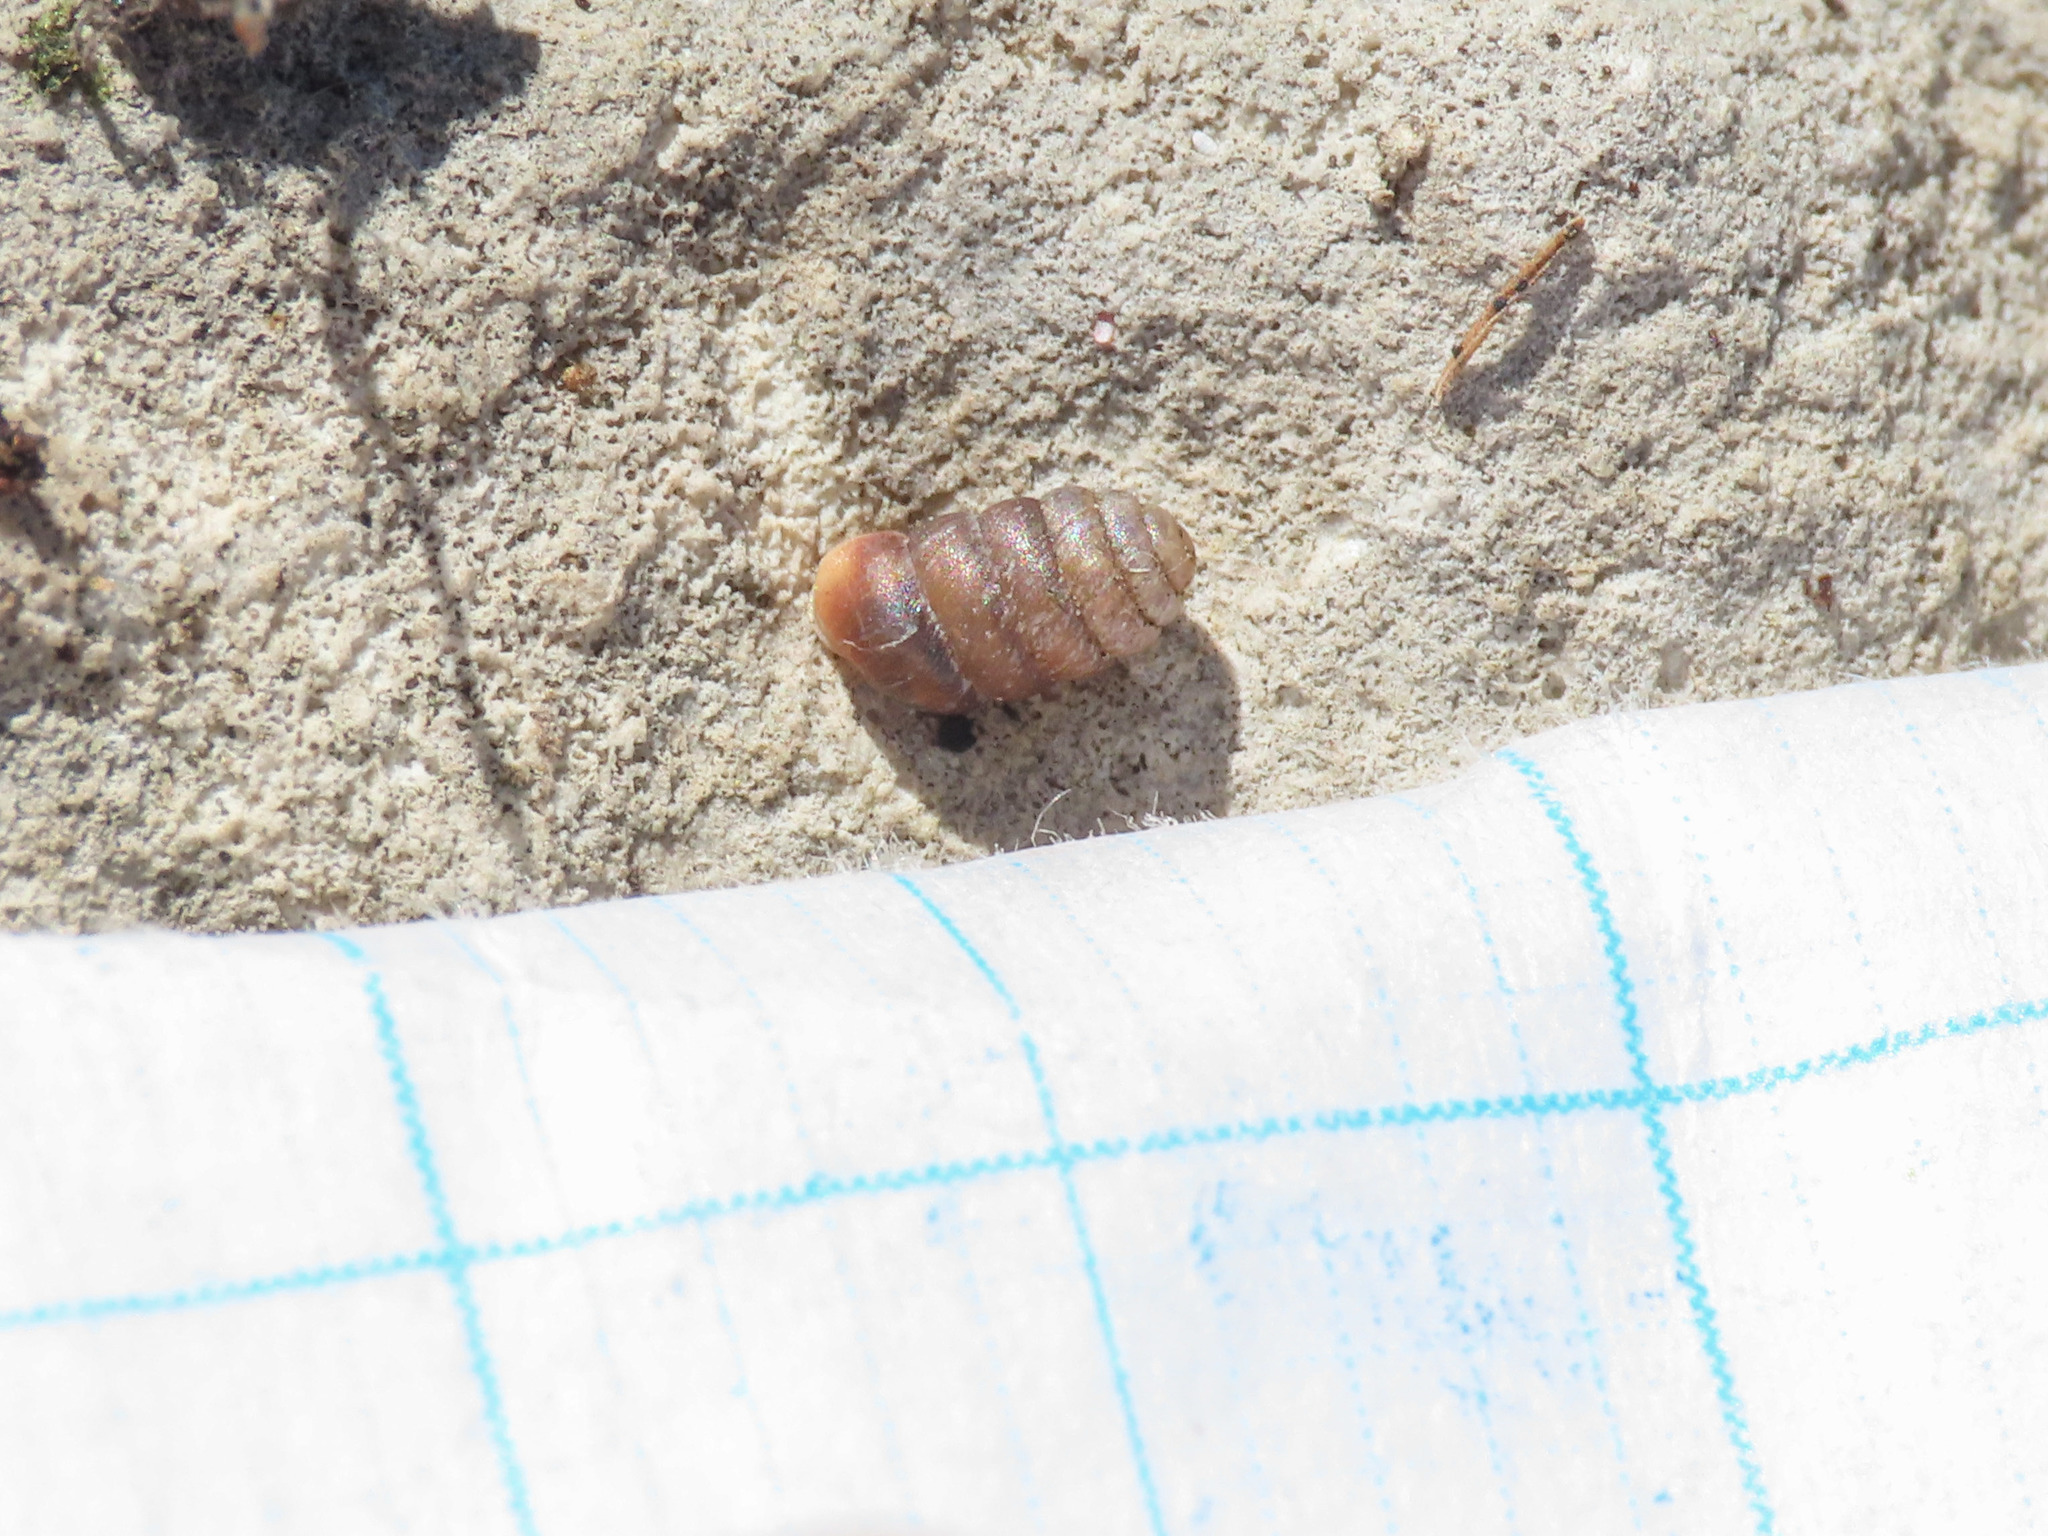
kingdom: Animalia
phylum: Mollusca
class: Gastropoda
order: Stylommatophora
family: Pupillidae
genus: Pupilla
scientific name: Pupilla triplicata
